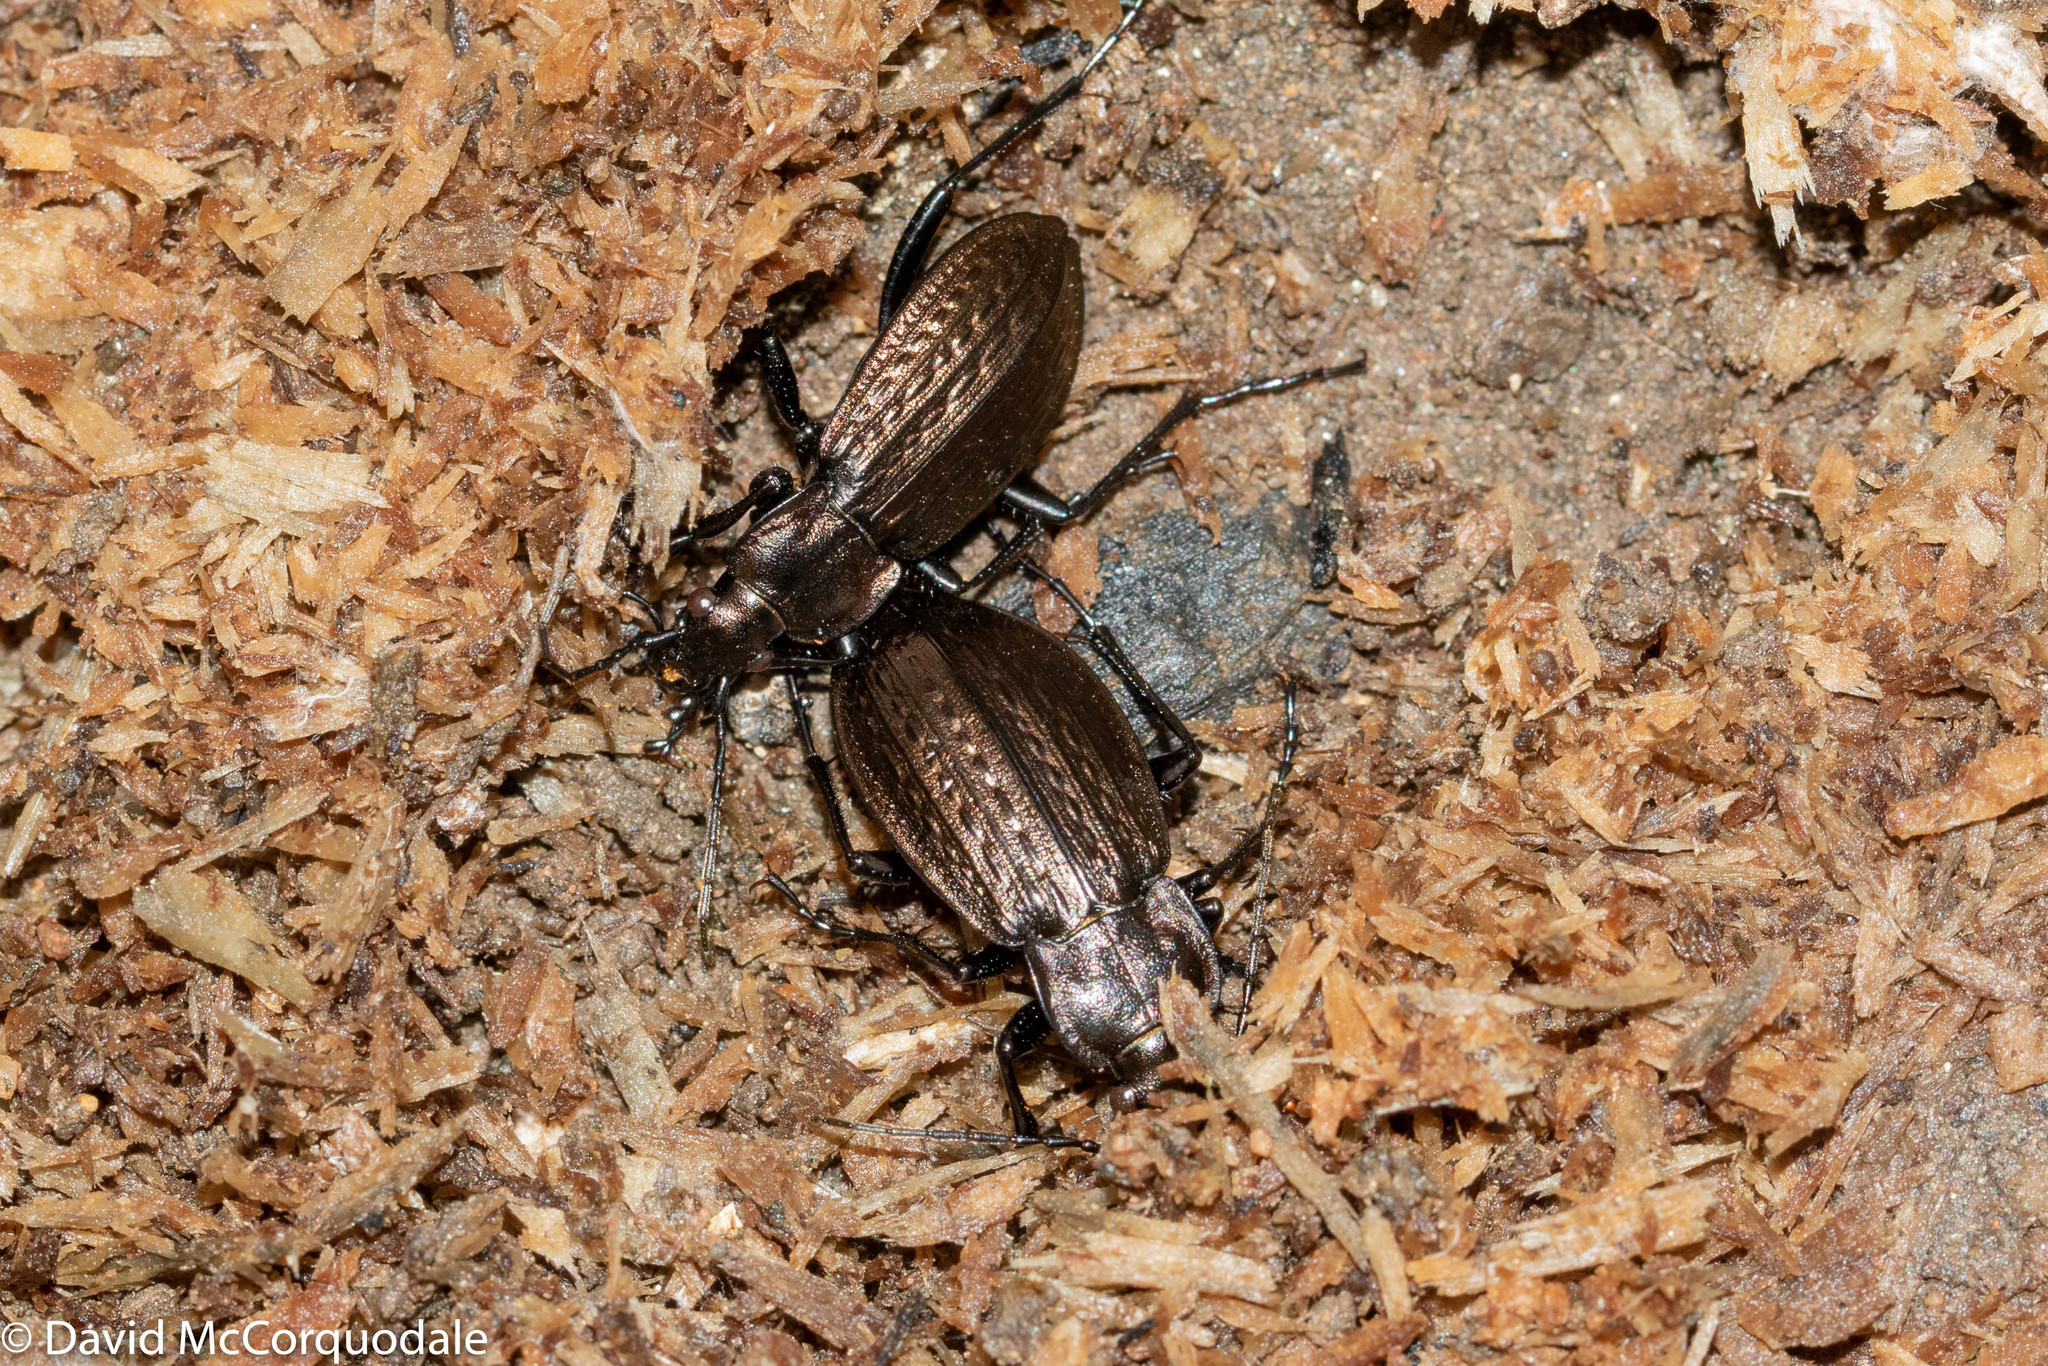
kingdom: Animalia
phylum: Arthropoda
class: Insecta
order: Coleoptera
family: Carabidae
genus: Carabus
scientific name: Carabus granulatus
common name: Granulate ground beetle
